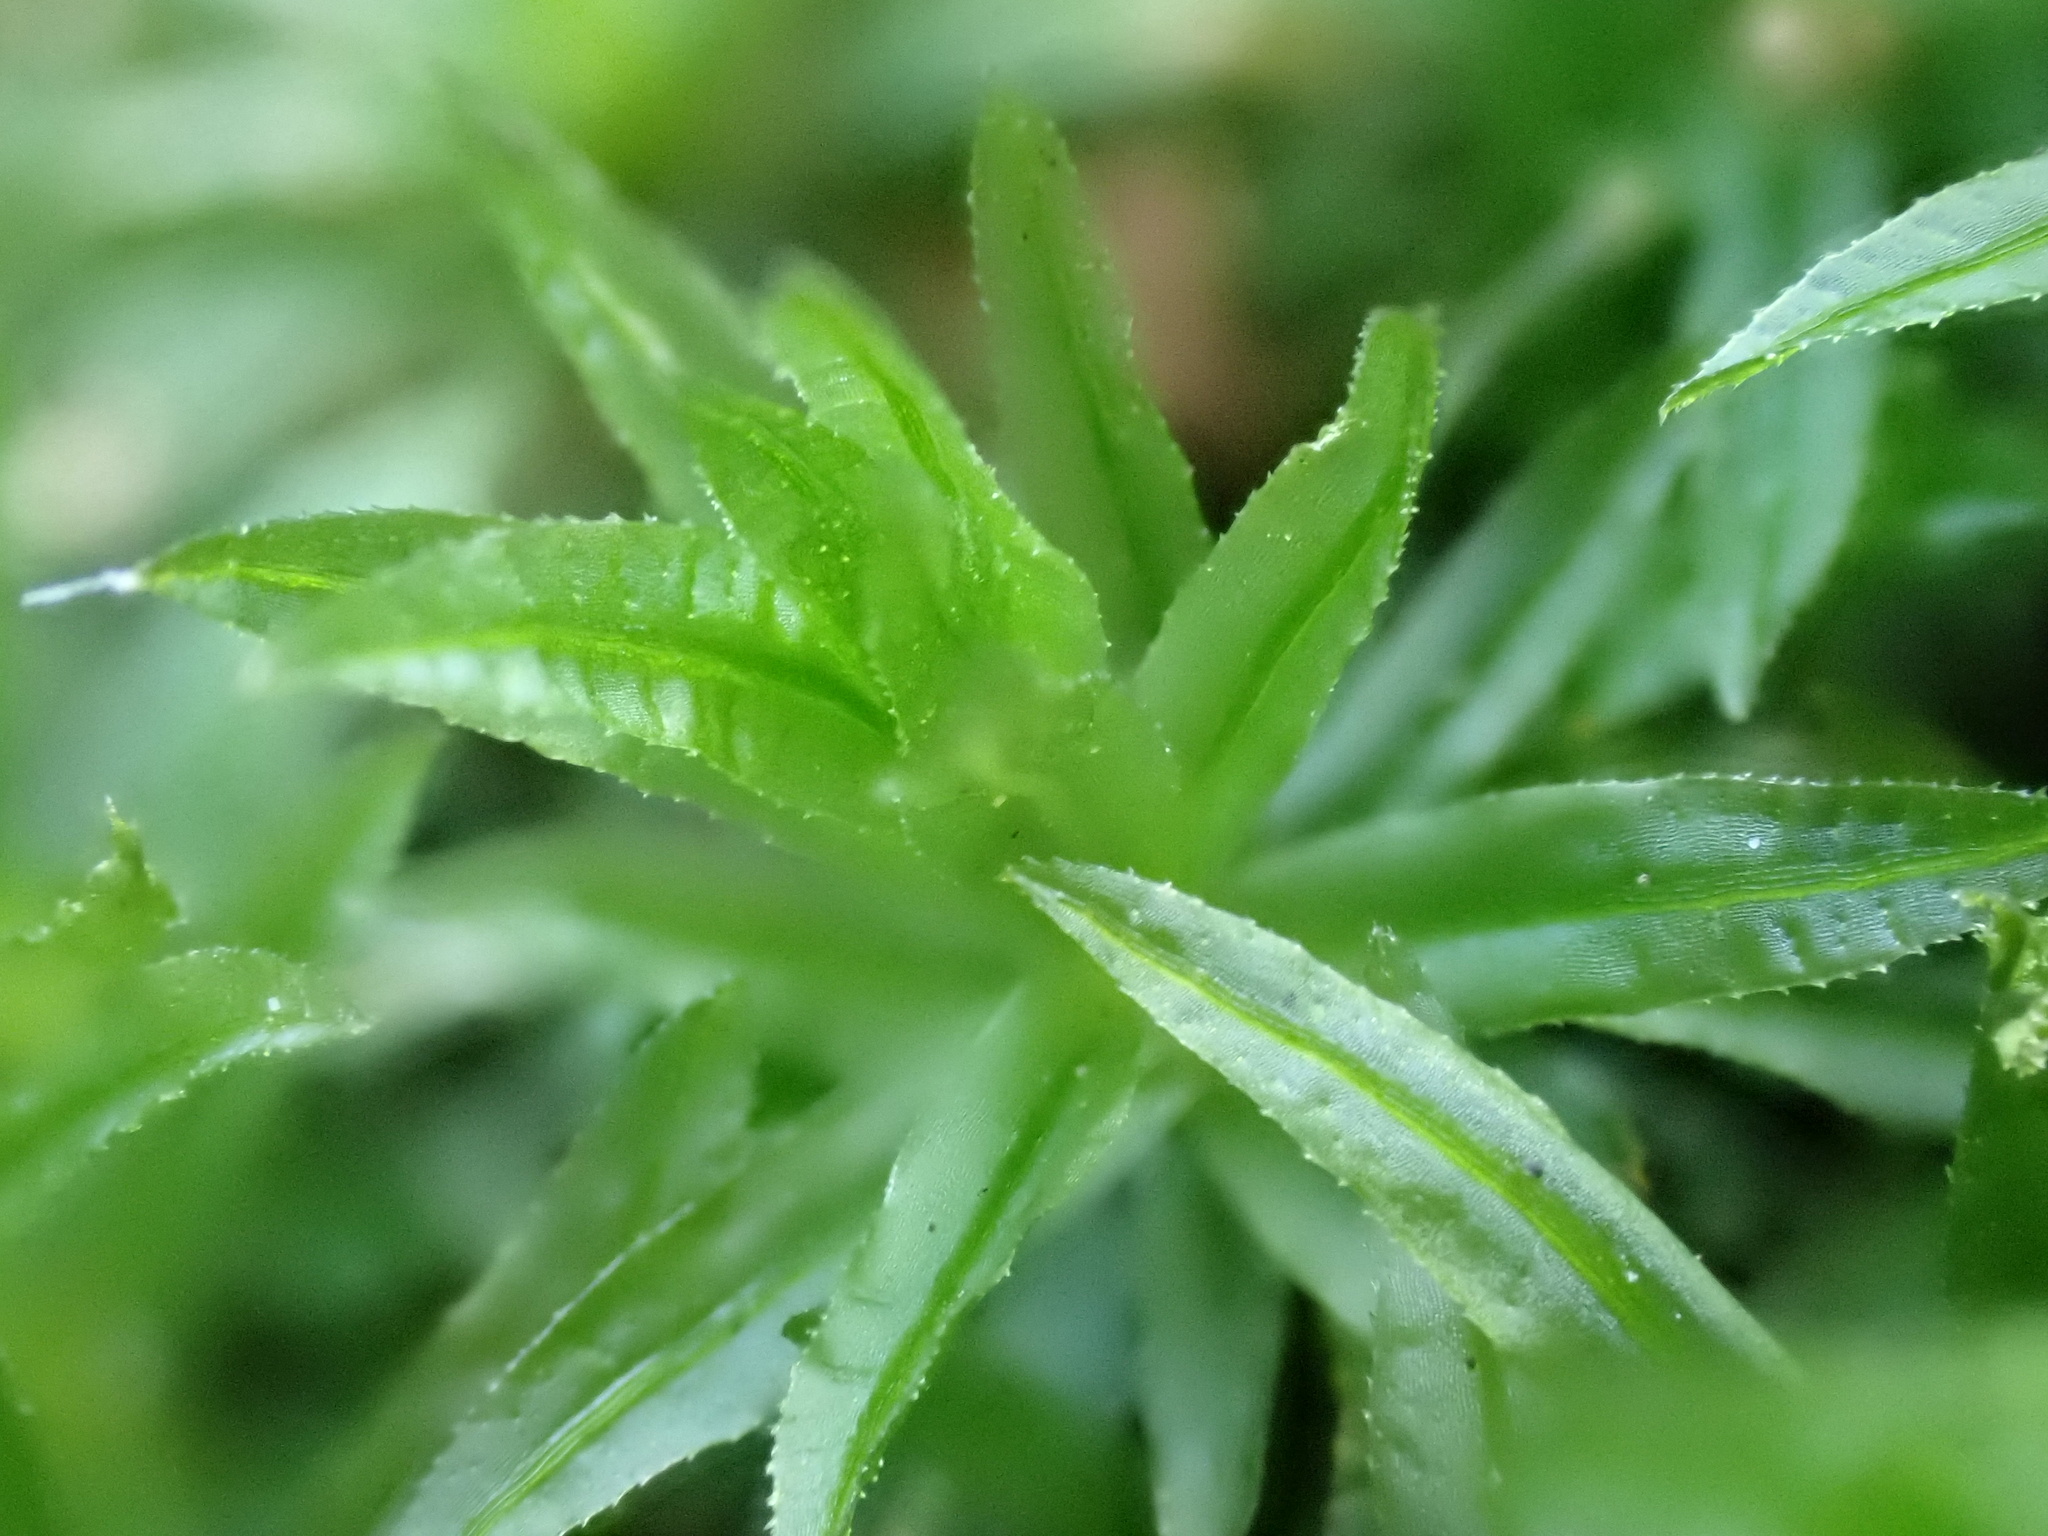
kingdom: Plantae
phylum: Bryophyta
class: Polytrichopsida
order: Polytrichales
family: Polytrichaceae
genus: Atrichum
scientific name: Atrichum undulatum
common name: Common smoothcap
